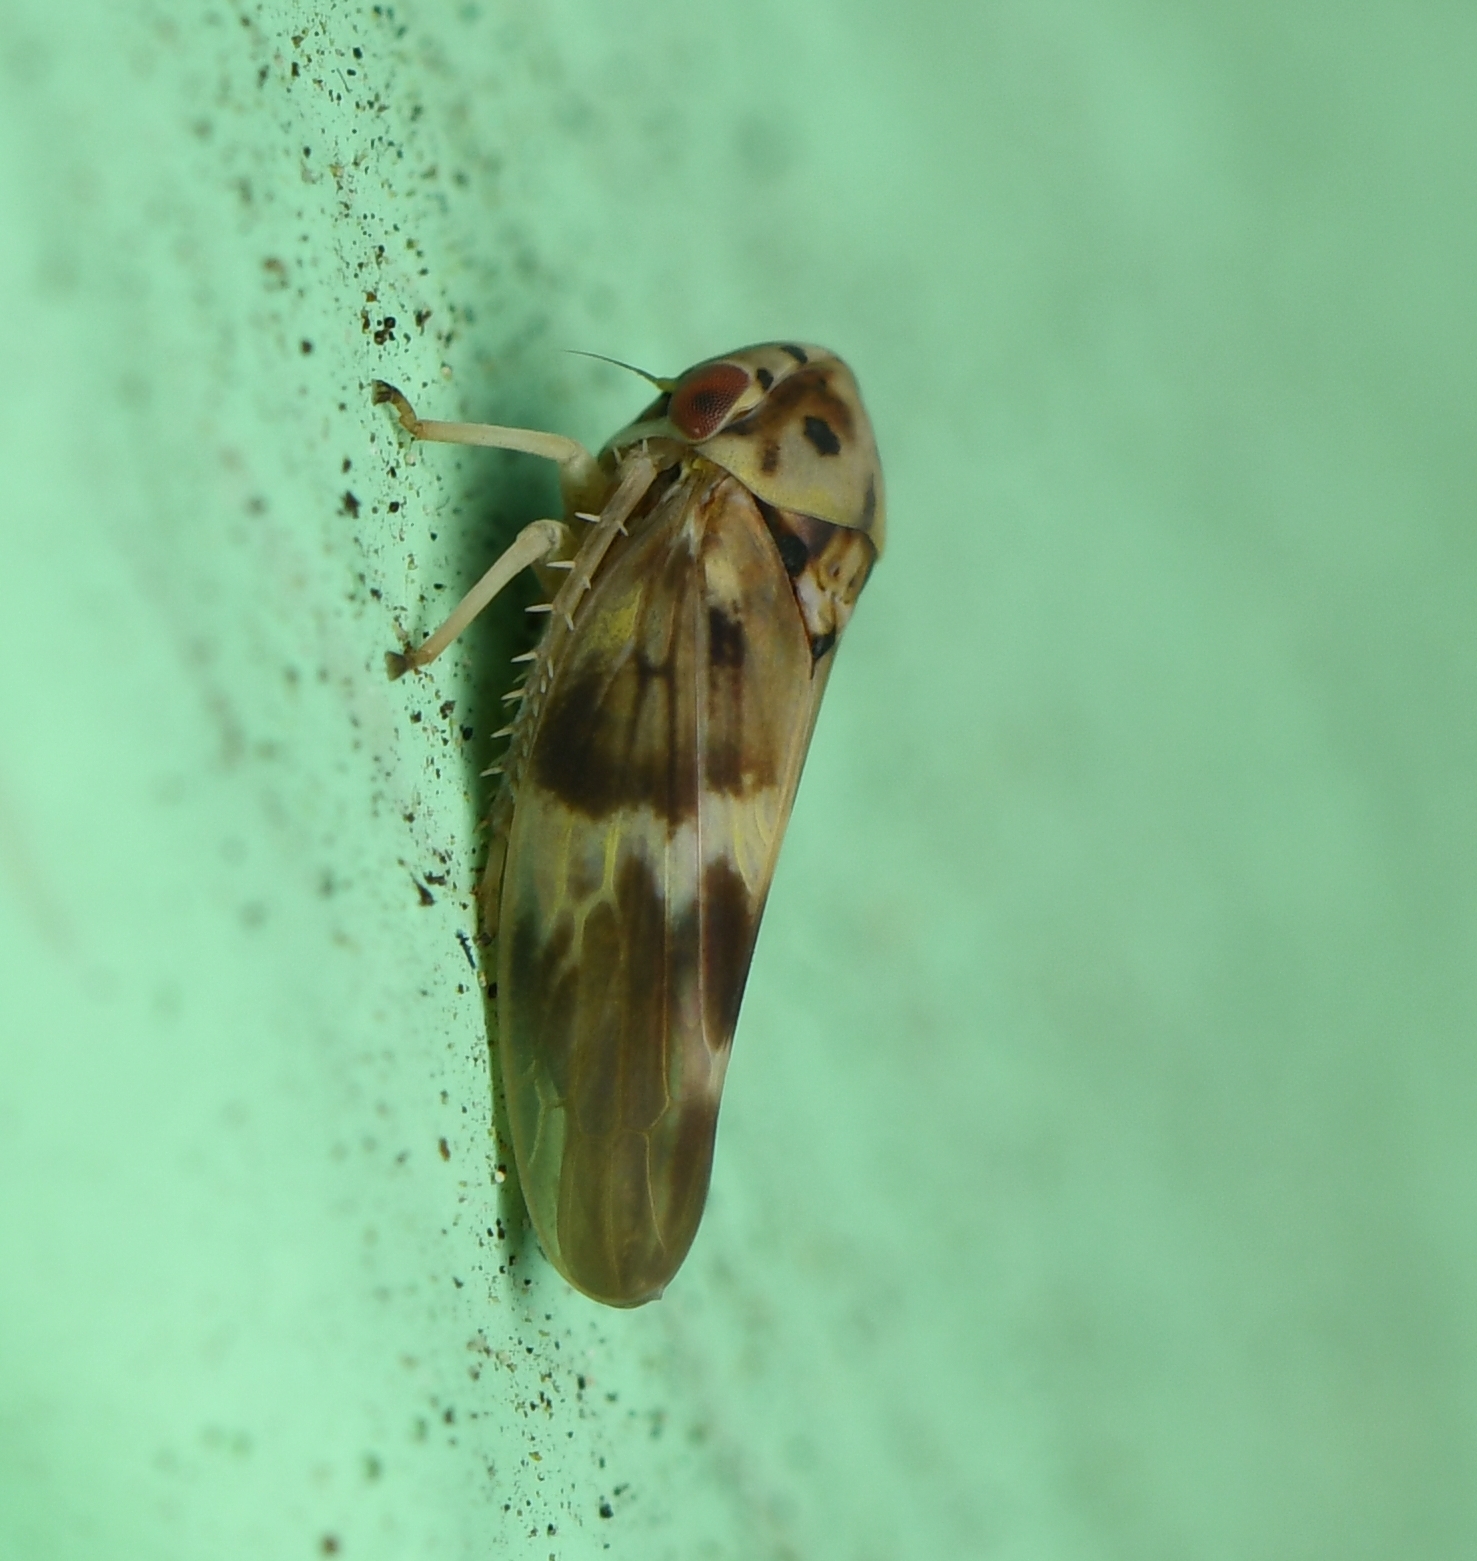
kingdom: Animalia
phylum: Arthropoda
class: Insecta
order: Hemiptera
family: Cicadellidae
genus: Agalliopsis
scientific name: Agalliopsis cervina
